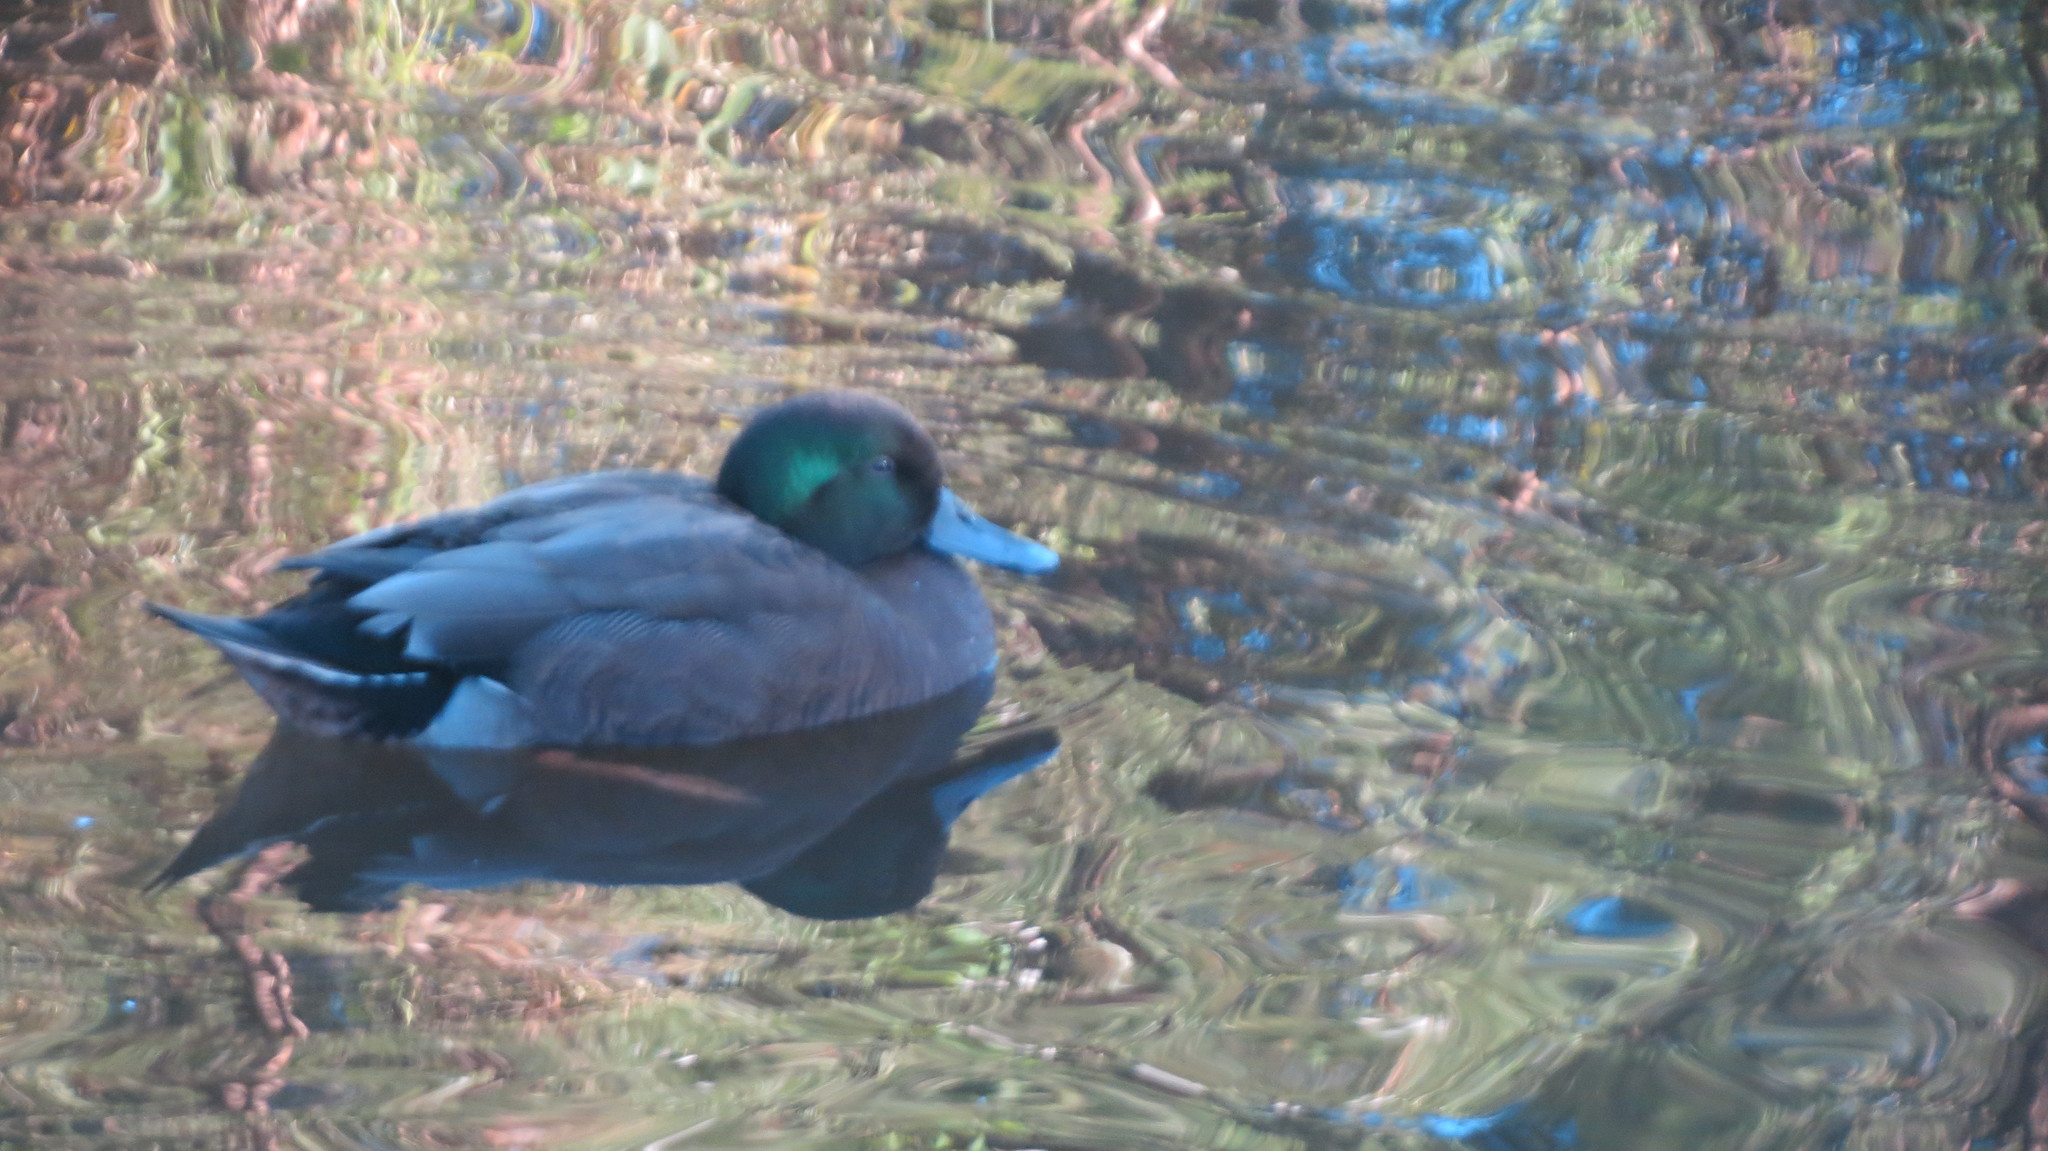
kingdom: Animalia
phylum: Chordata
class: Aves
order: Anseriformes
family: Anatidae
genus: Anas
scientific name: Anas
